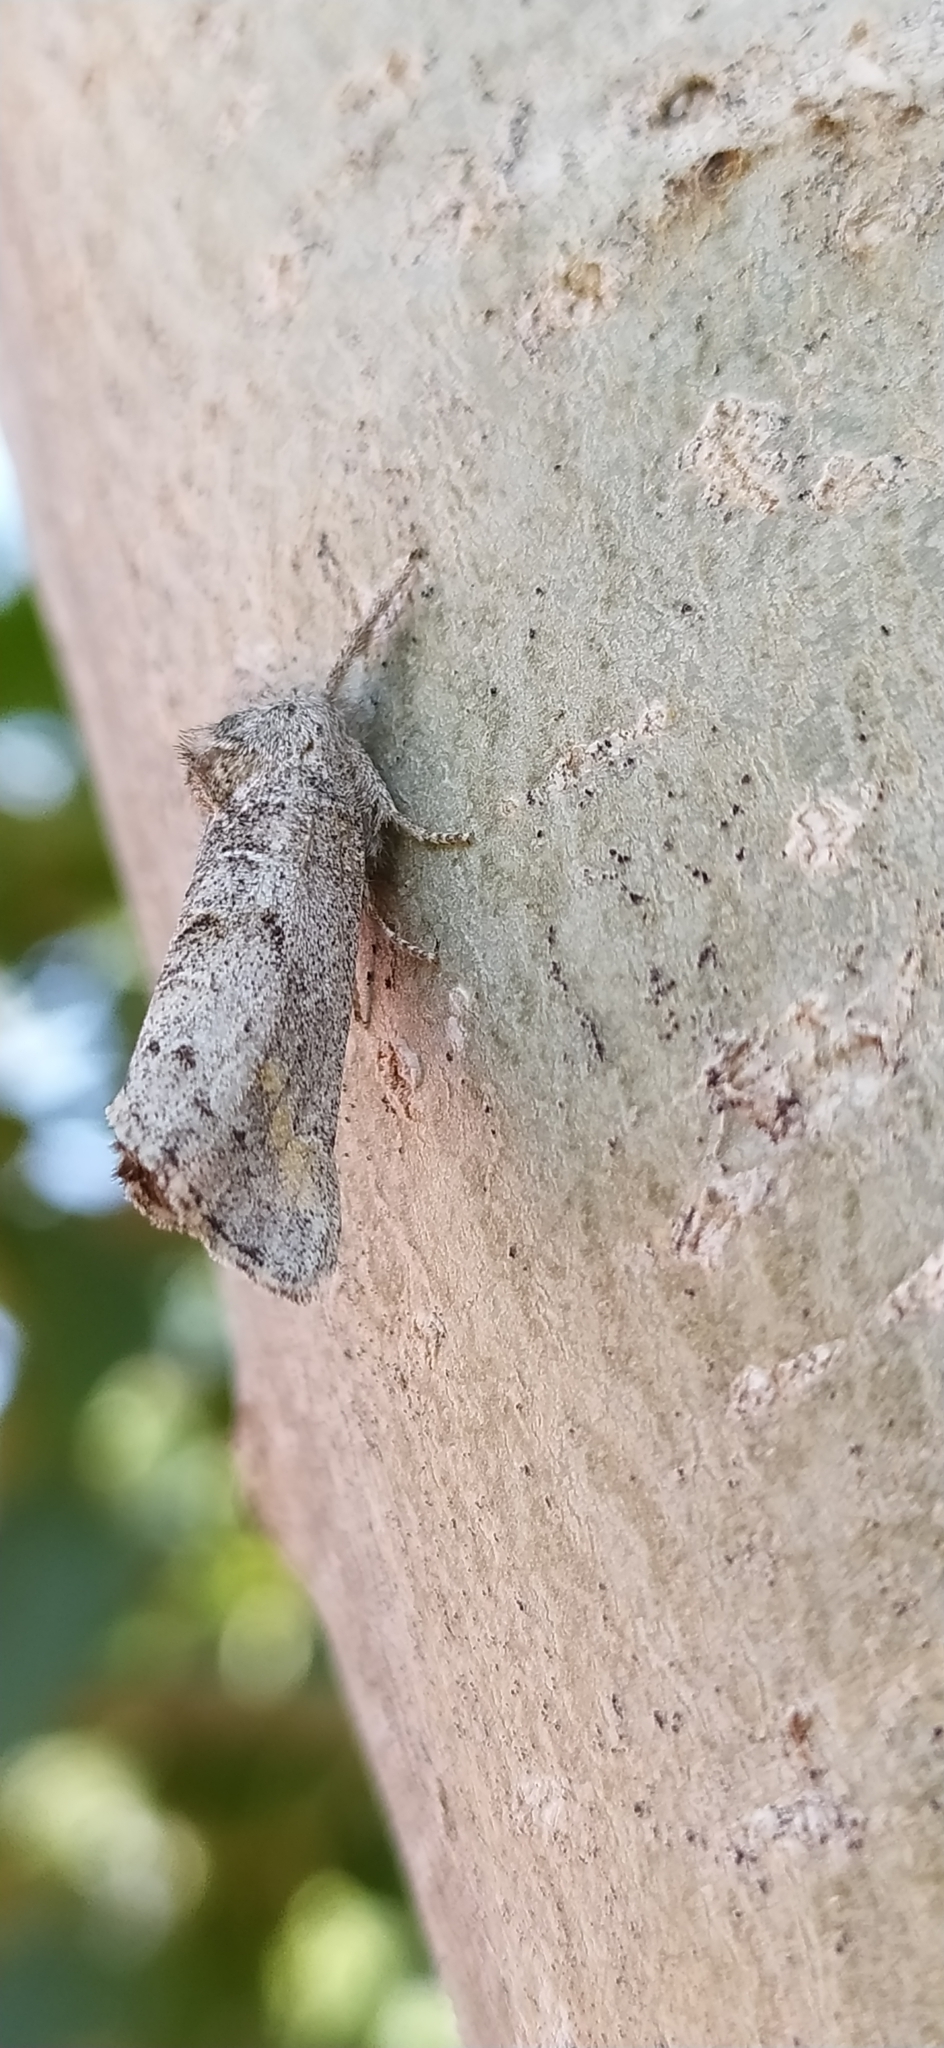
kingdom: Animalia
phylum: Arthropoda
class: Insecta
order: Lepidoptera
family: Notodontidae
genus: Clostera
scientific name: Clostera modesta
